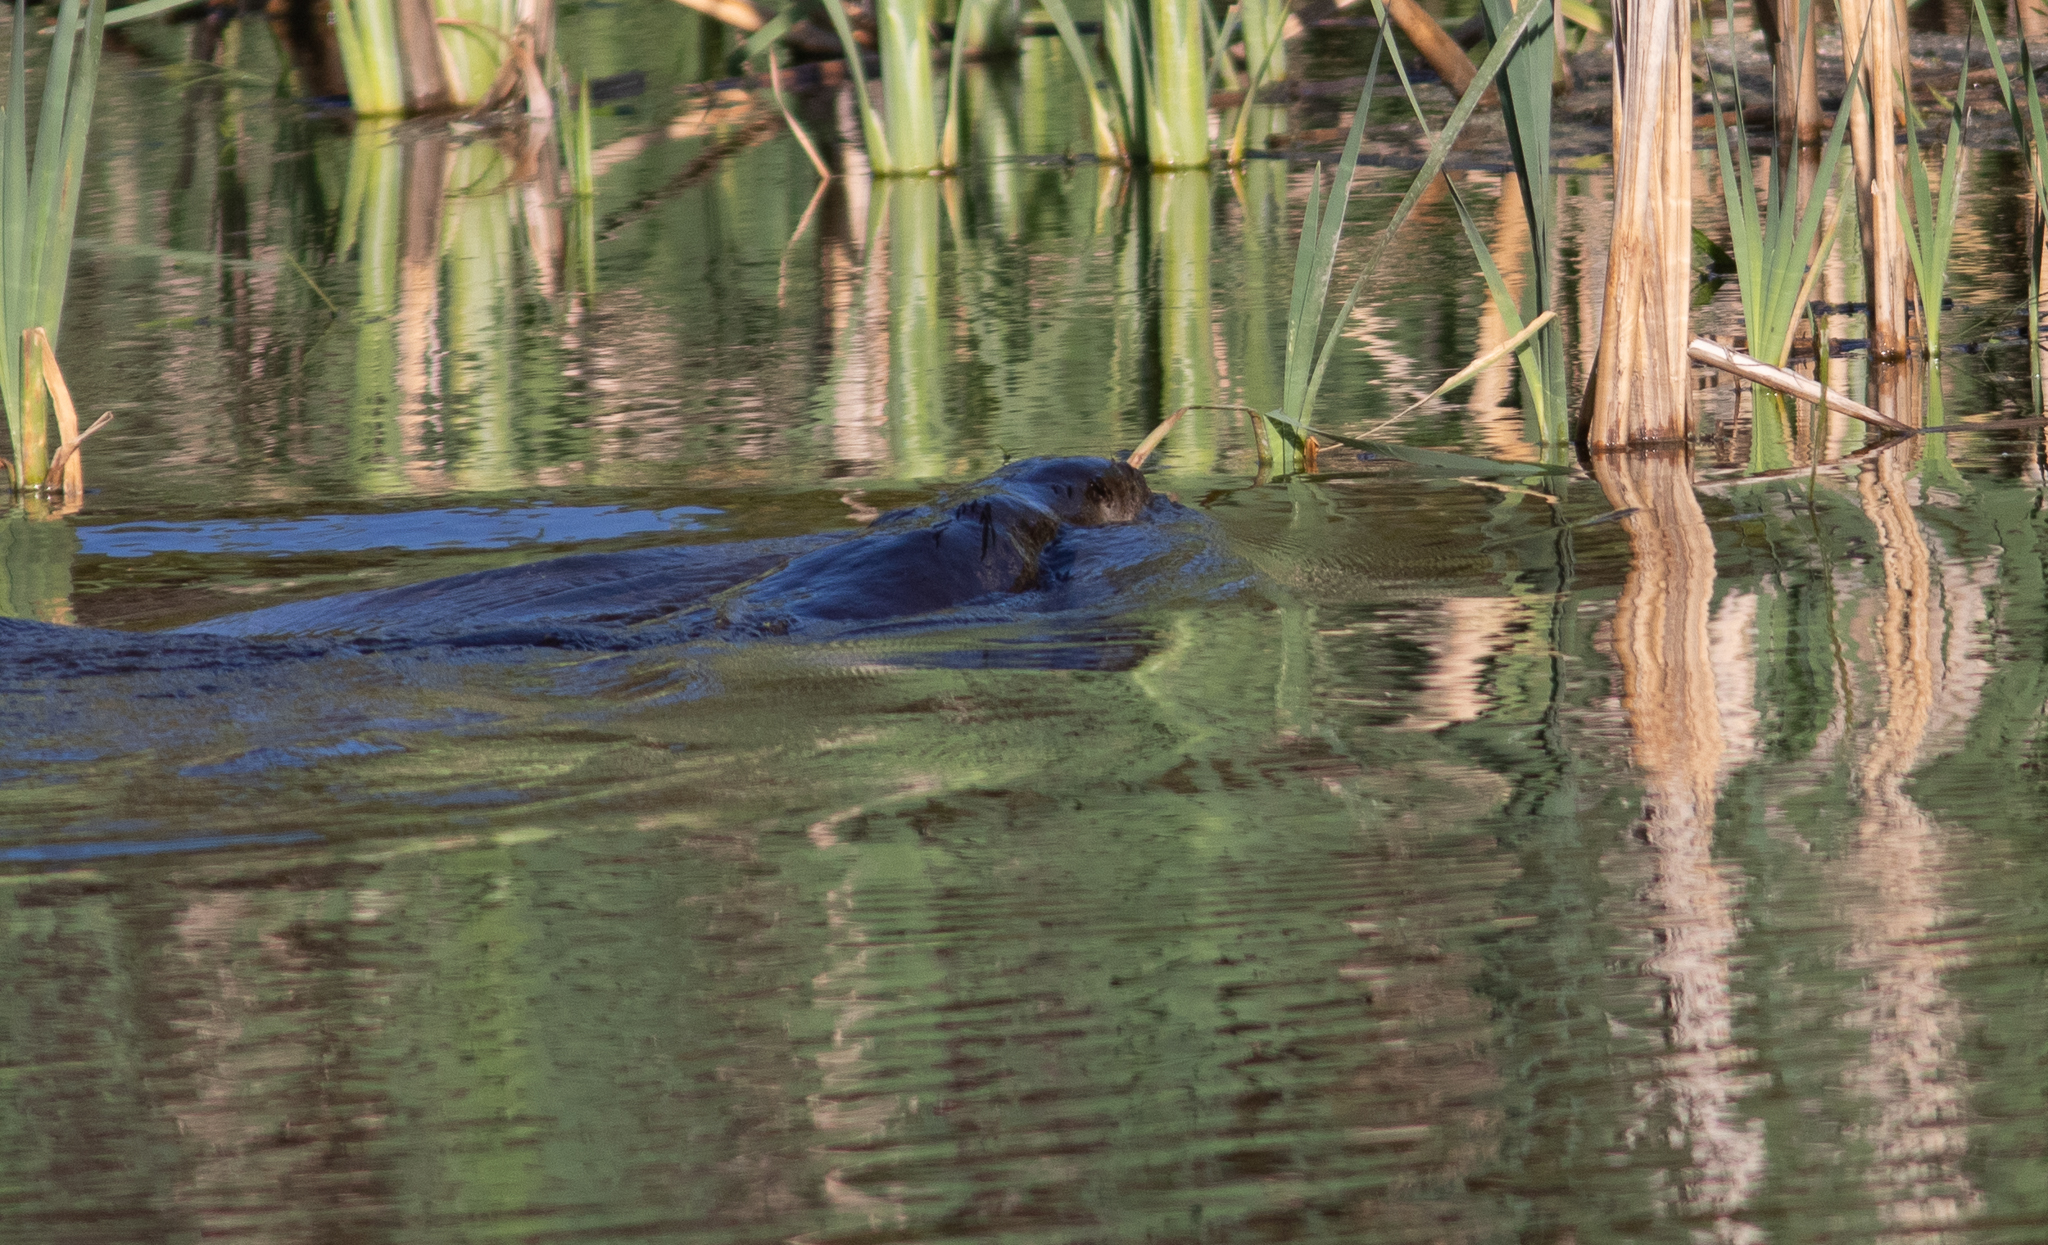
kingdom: Animalia
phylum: Chordata
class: Mammalia
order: Carnivora
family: Mustelidae
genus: Lontra
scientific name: Lontra canadensis
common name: North american river otter
